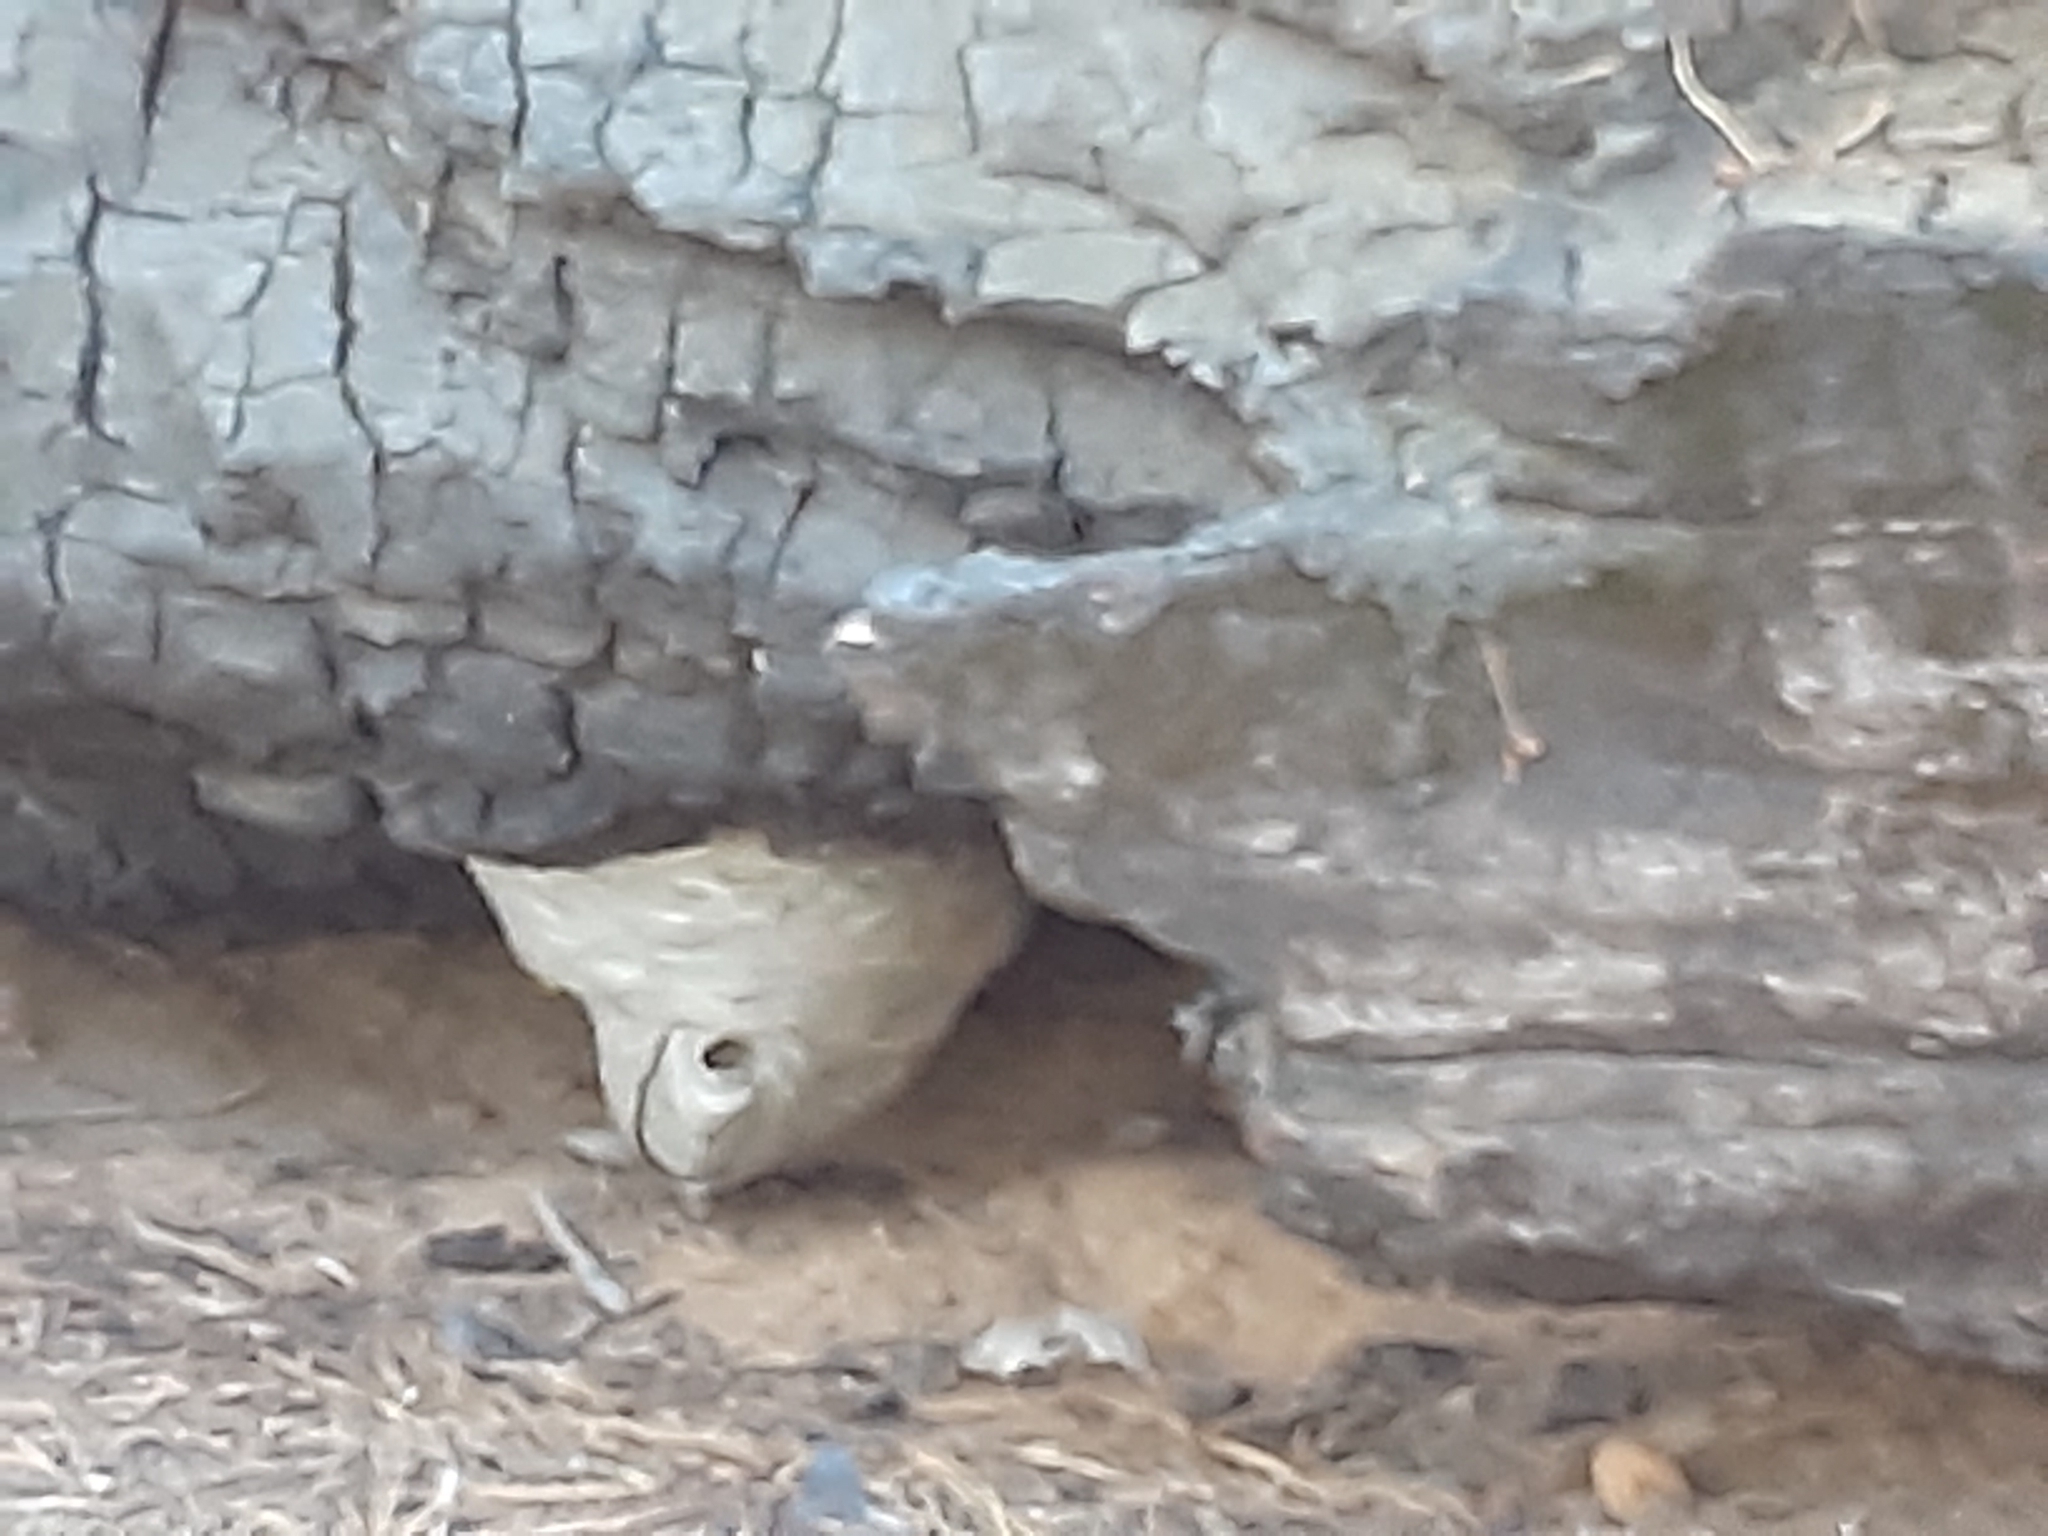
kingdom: Animalia
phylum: Arthropoda
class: Insecta
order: Hymenoptera
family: Vespidae
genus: Dolichovespula
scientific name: Dolichovespula
